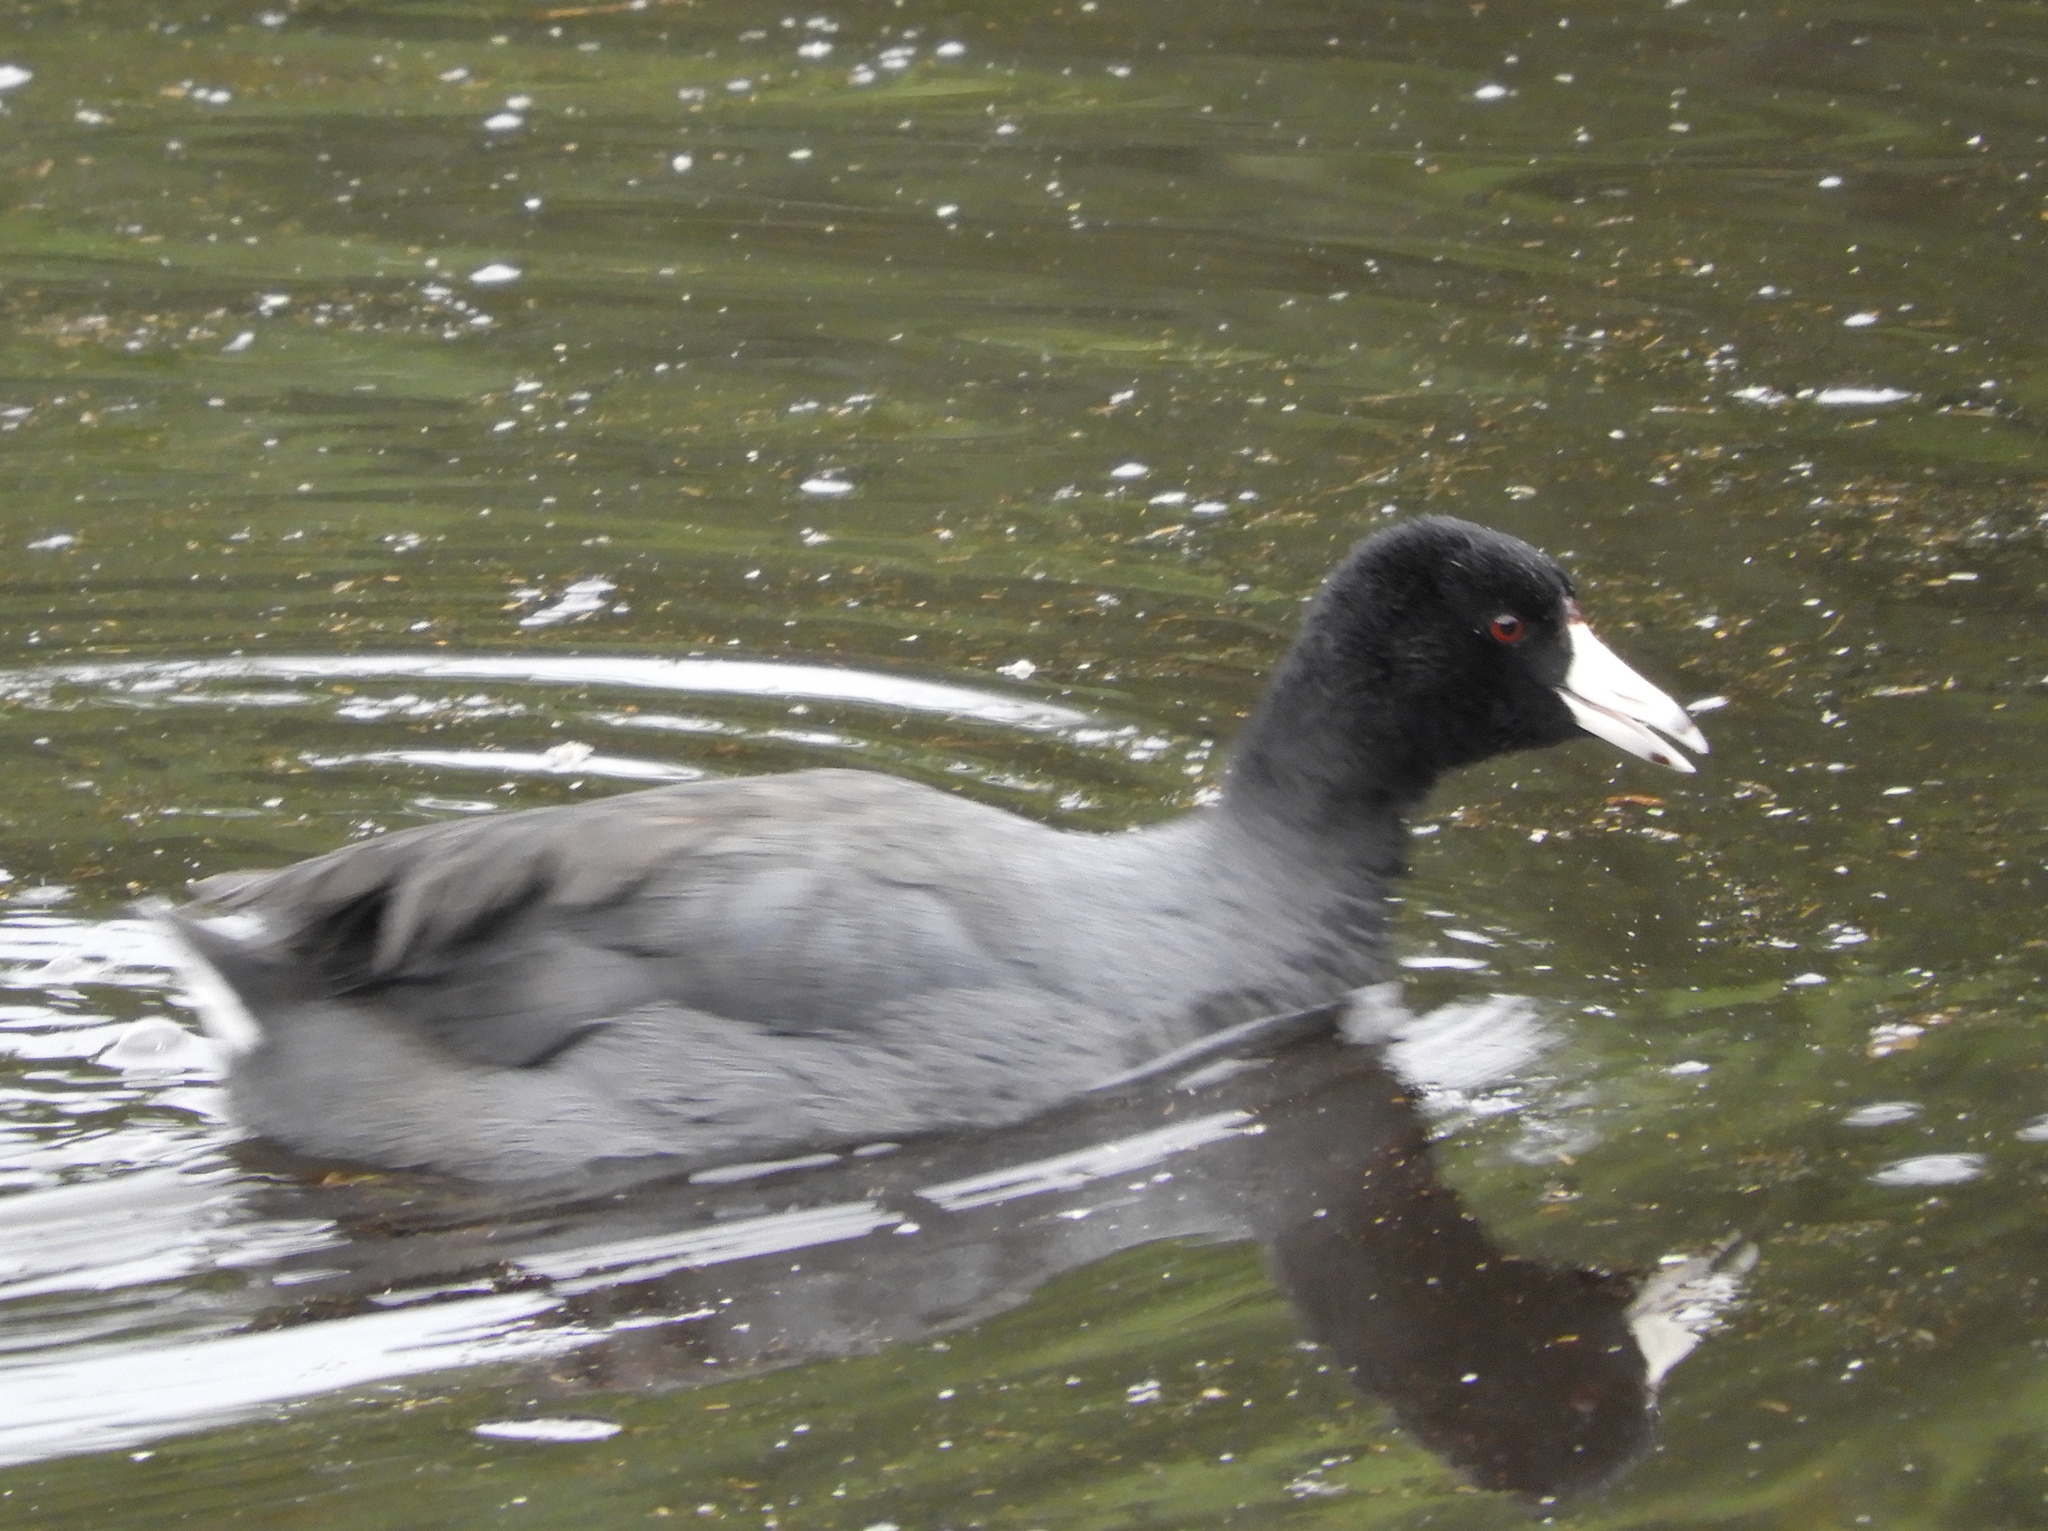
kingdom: Animalia
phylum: Chordata
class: Aves
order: Gruiformes
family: Rallidae
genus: Fulica
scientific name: Fulica americana
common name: American coot
